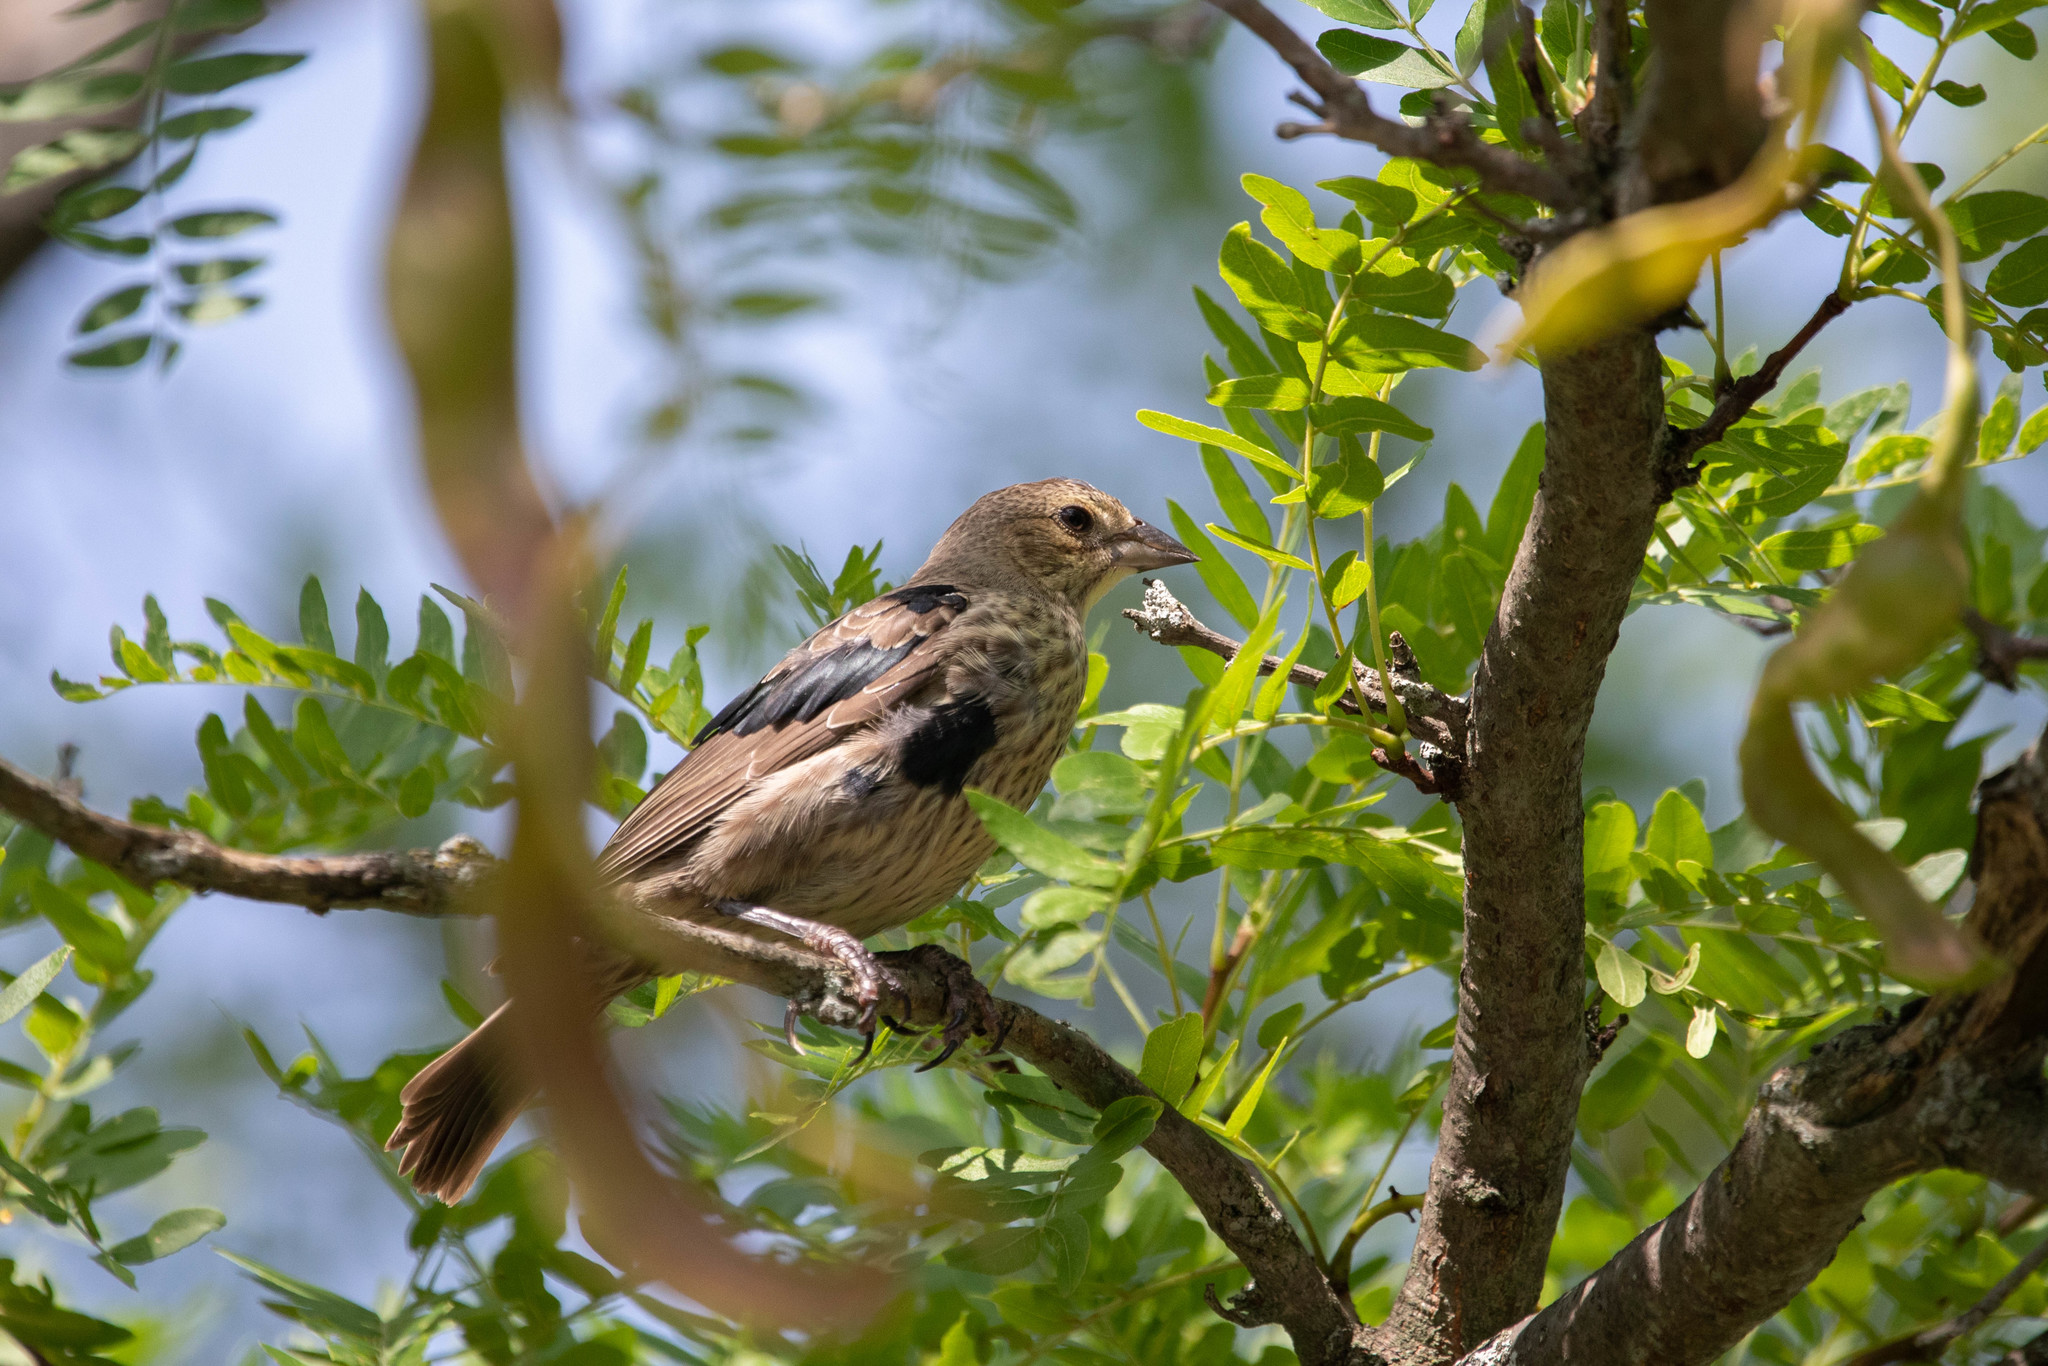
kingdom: Animalia
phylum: Chordata
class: Aves
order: Passeriformes
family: Icteridae
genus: Molothrus
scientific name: Molothrus ater
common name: Brown-headed cowbird
